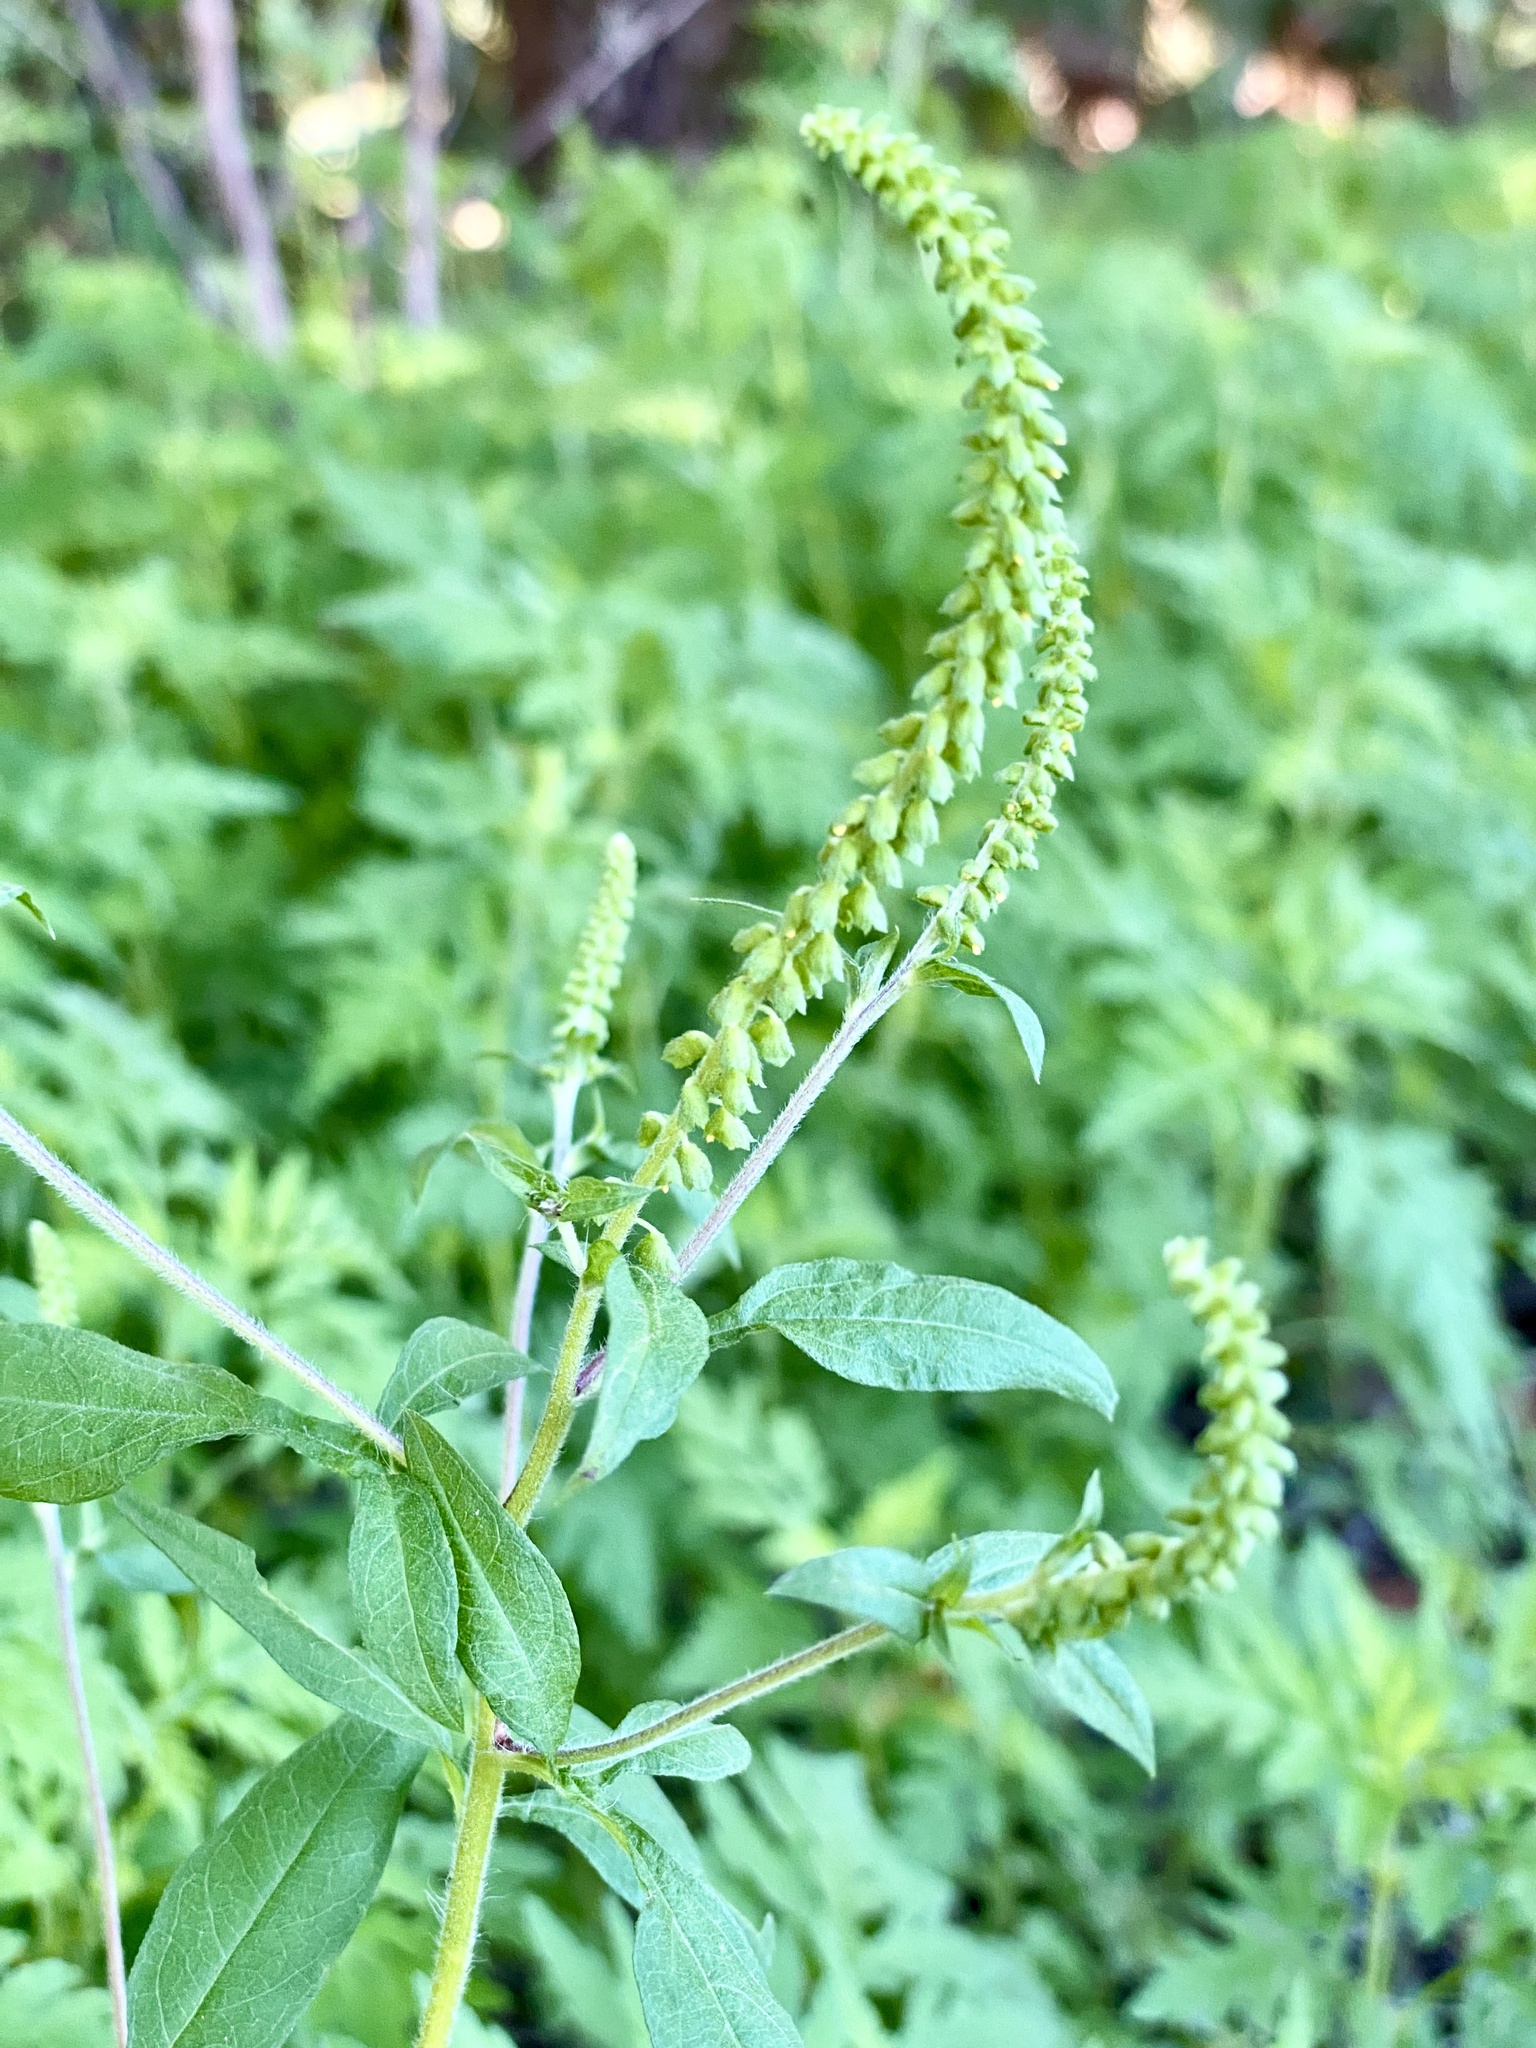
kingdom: Plantae
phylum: Tracheophyta
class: Magnoliopsida
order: Asterales
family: Asteraceae
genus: Ambrosia
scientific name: Ambrosia artemisiifolia
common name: Annual ragweed
